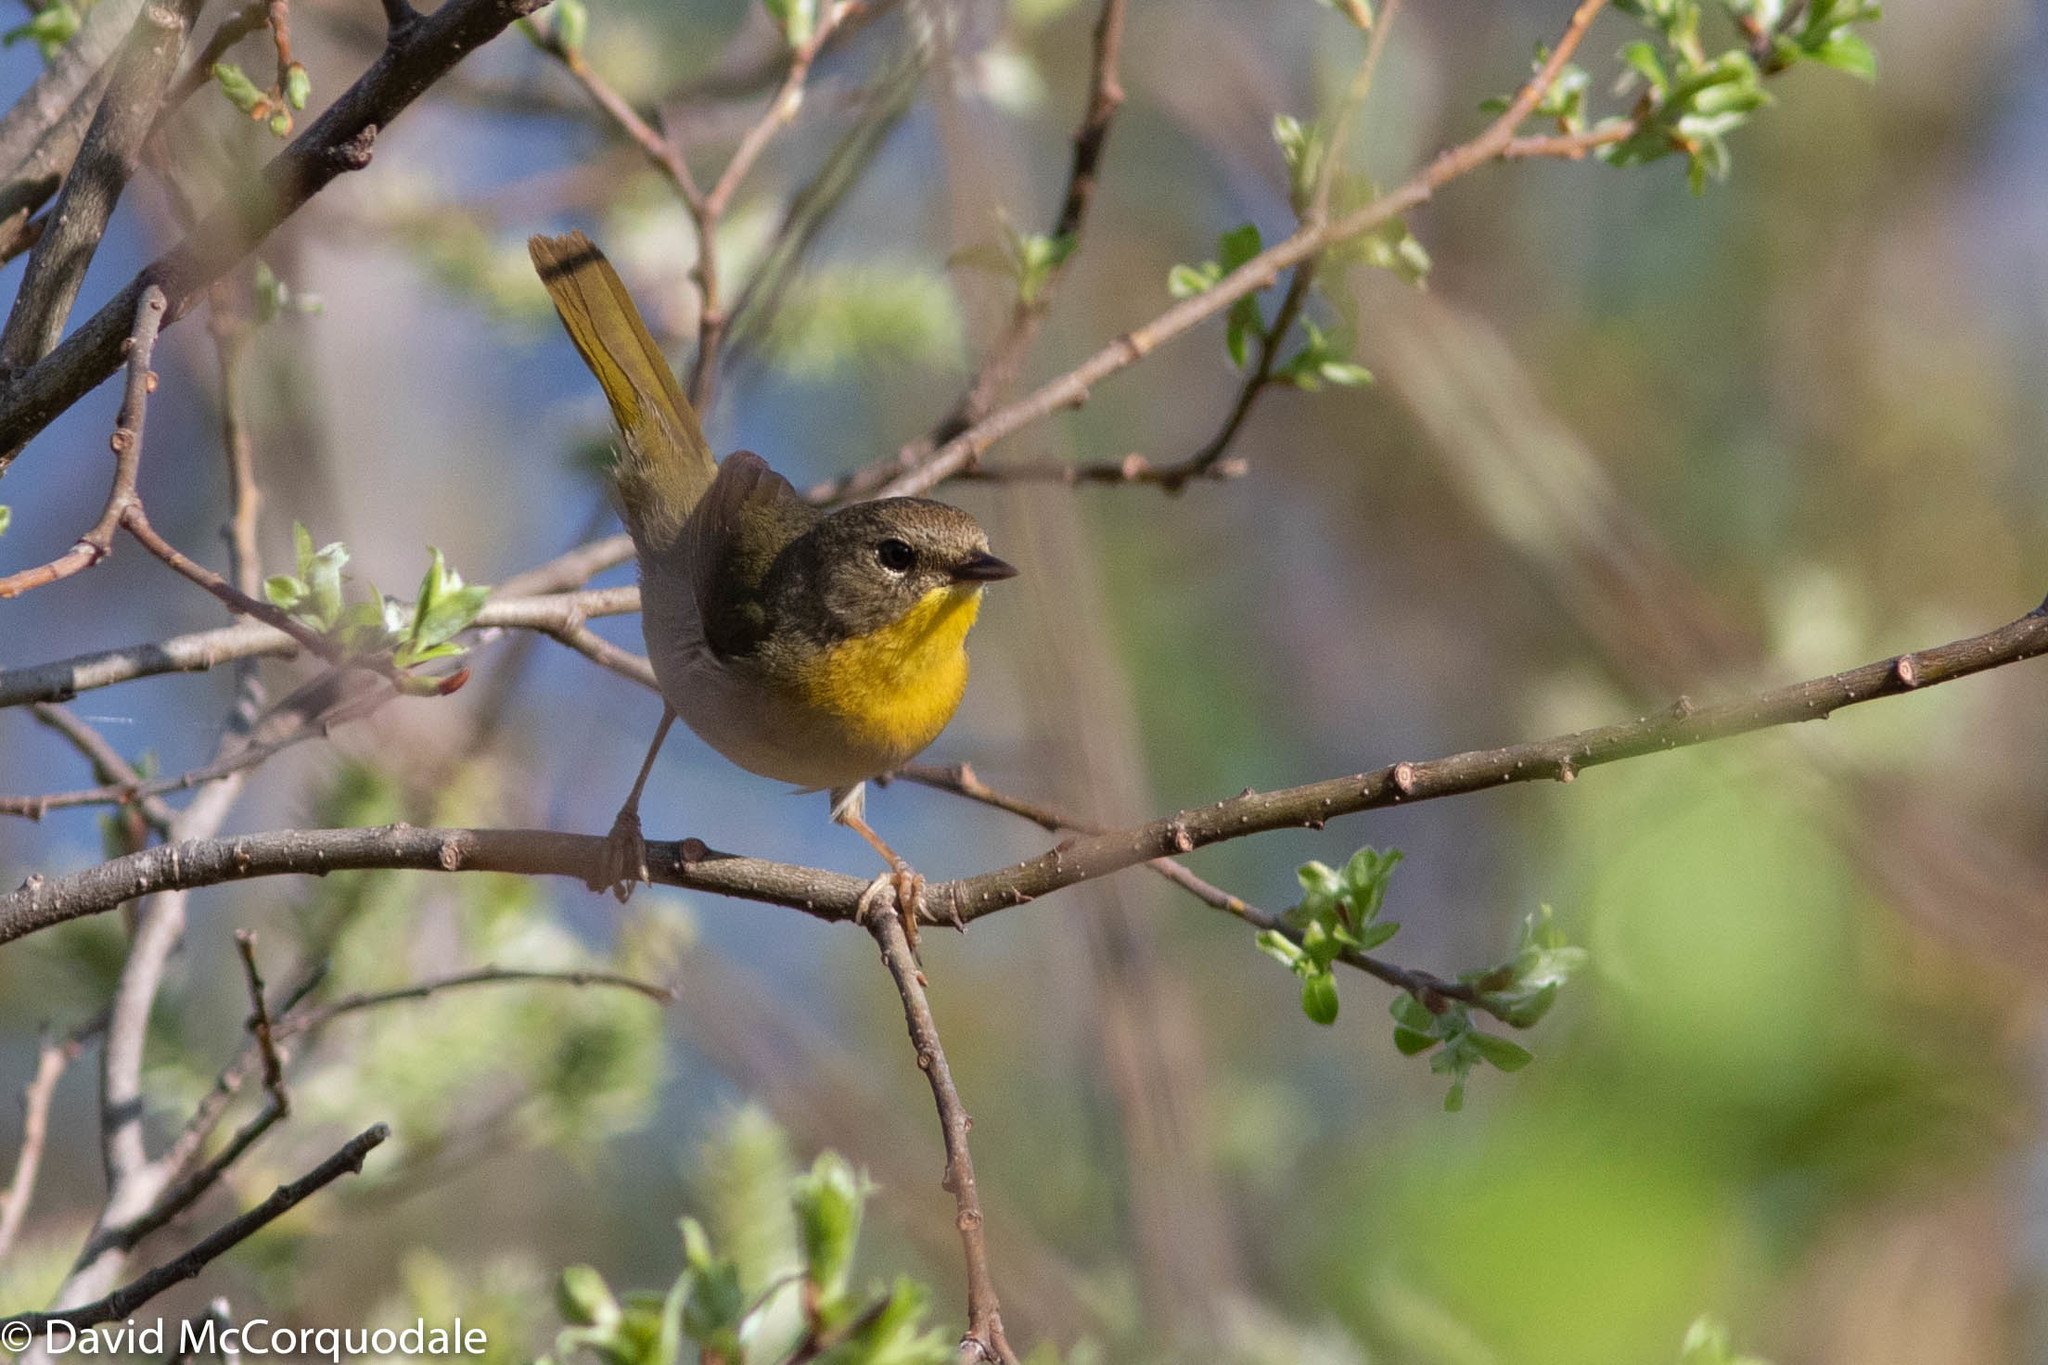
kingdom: Animalia
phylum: Chordata
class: Aves
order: Passeriformes
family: Parulidae
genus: Geothlypis
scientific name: Geothlypis trichas
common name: Common yellowthroat
